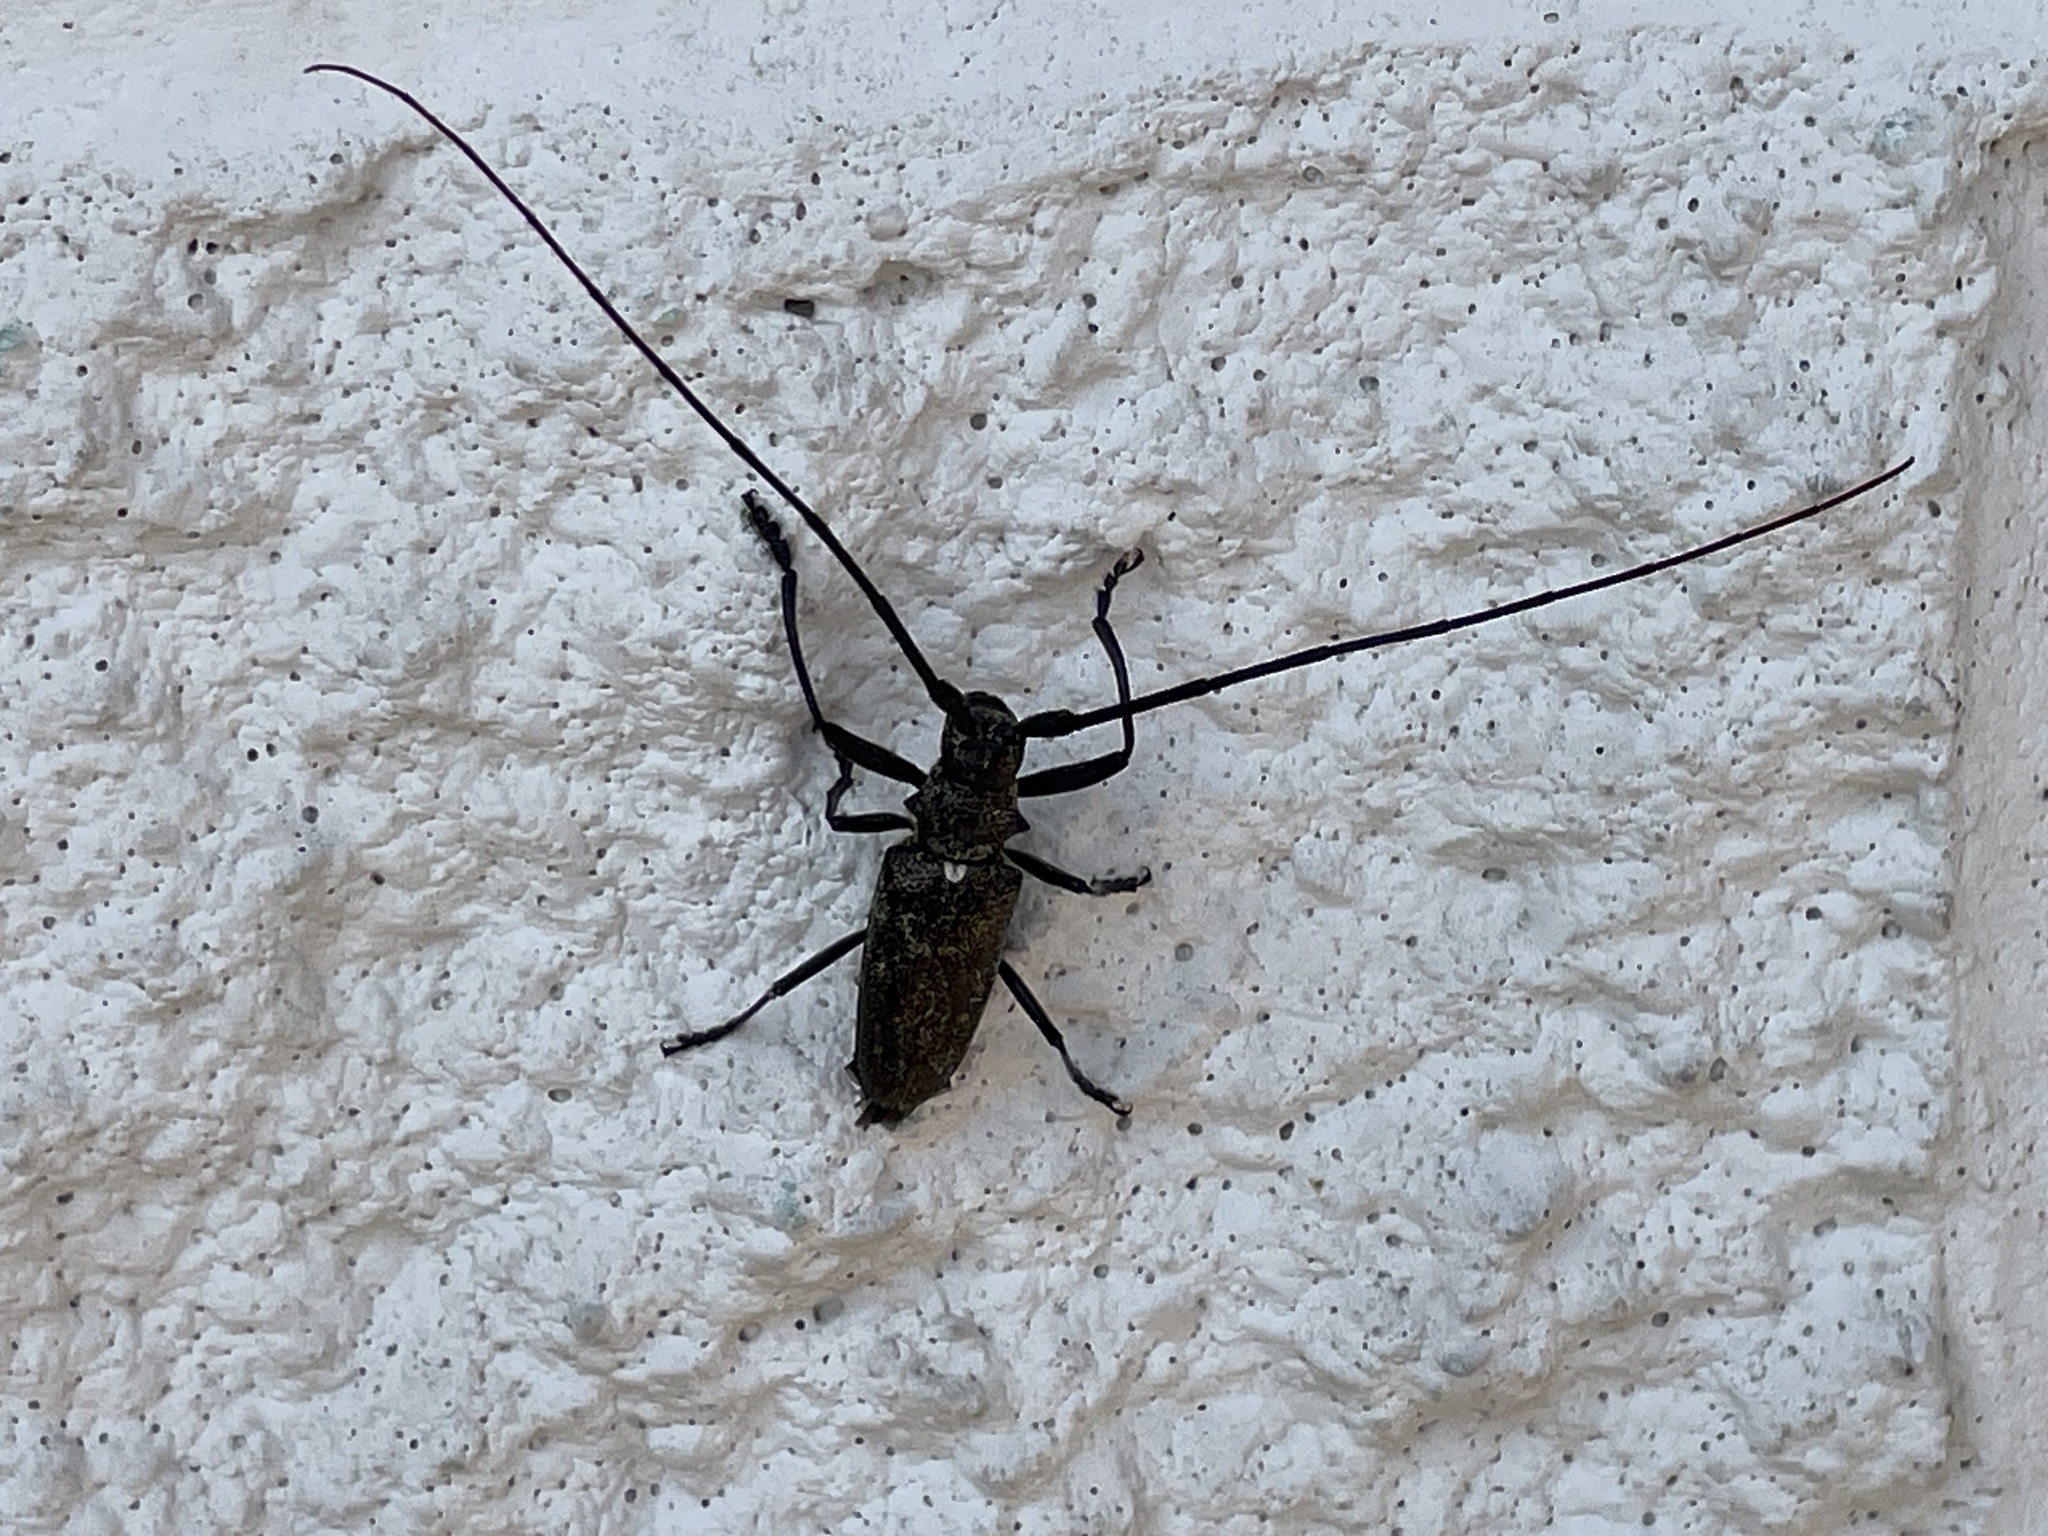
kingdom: Animalia
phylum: Arthropoda
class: Insecta
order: Coleoptera
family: Cerambycidae
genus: Monochamus
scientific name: Monochamus scutellatus
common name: White-spotted sawyer beetle
